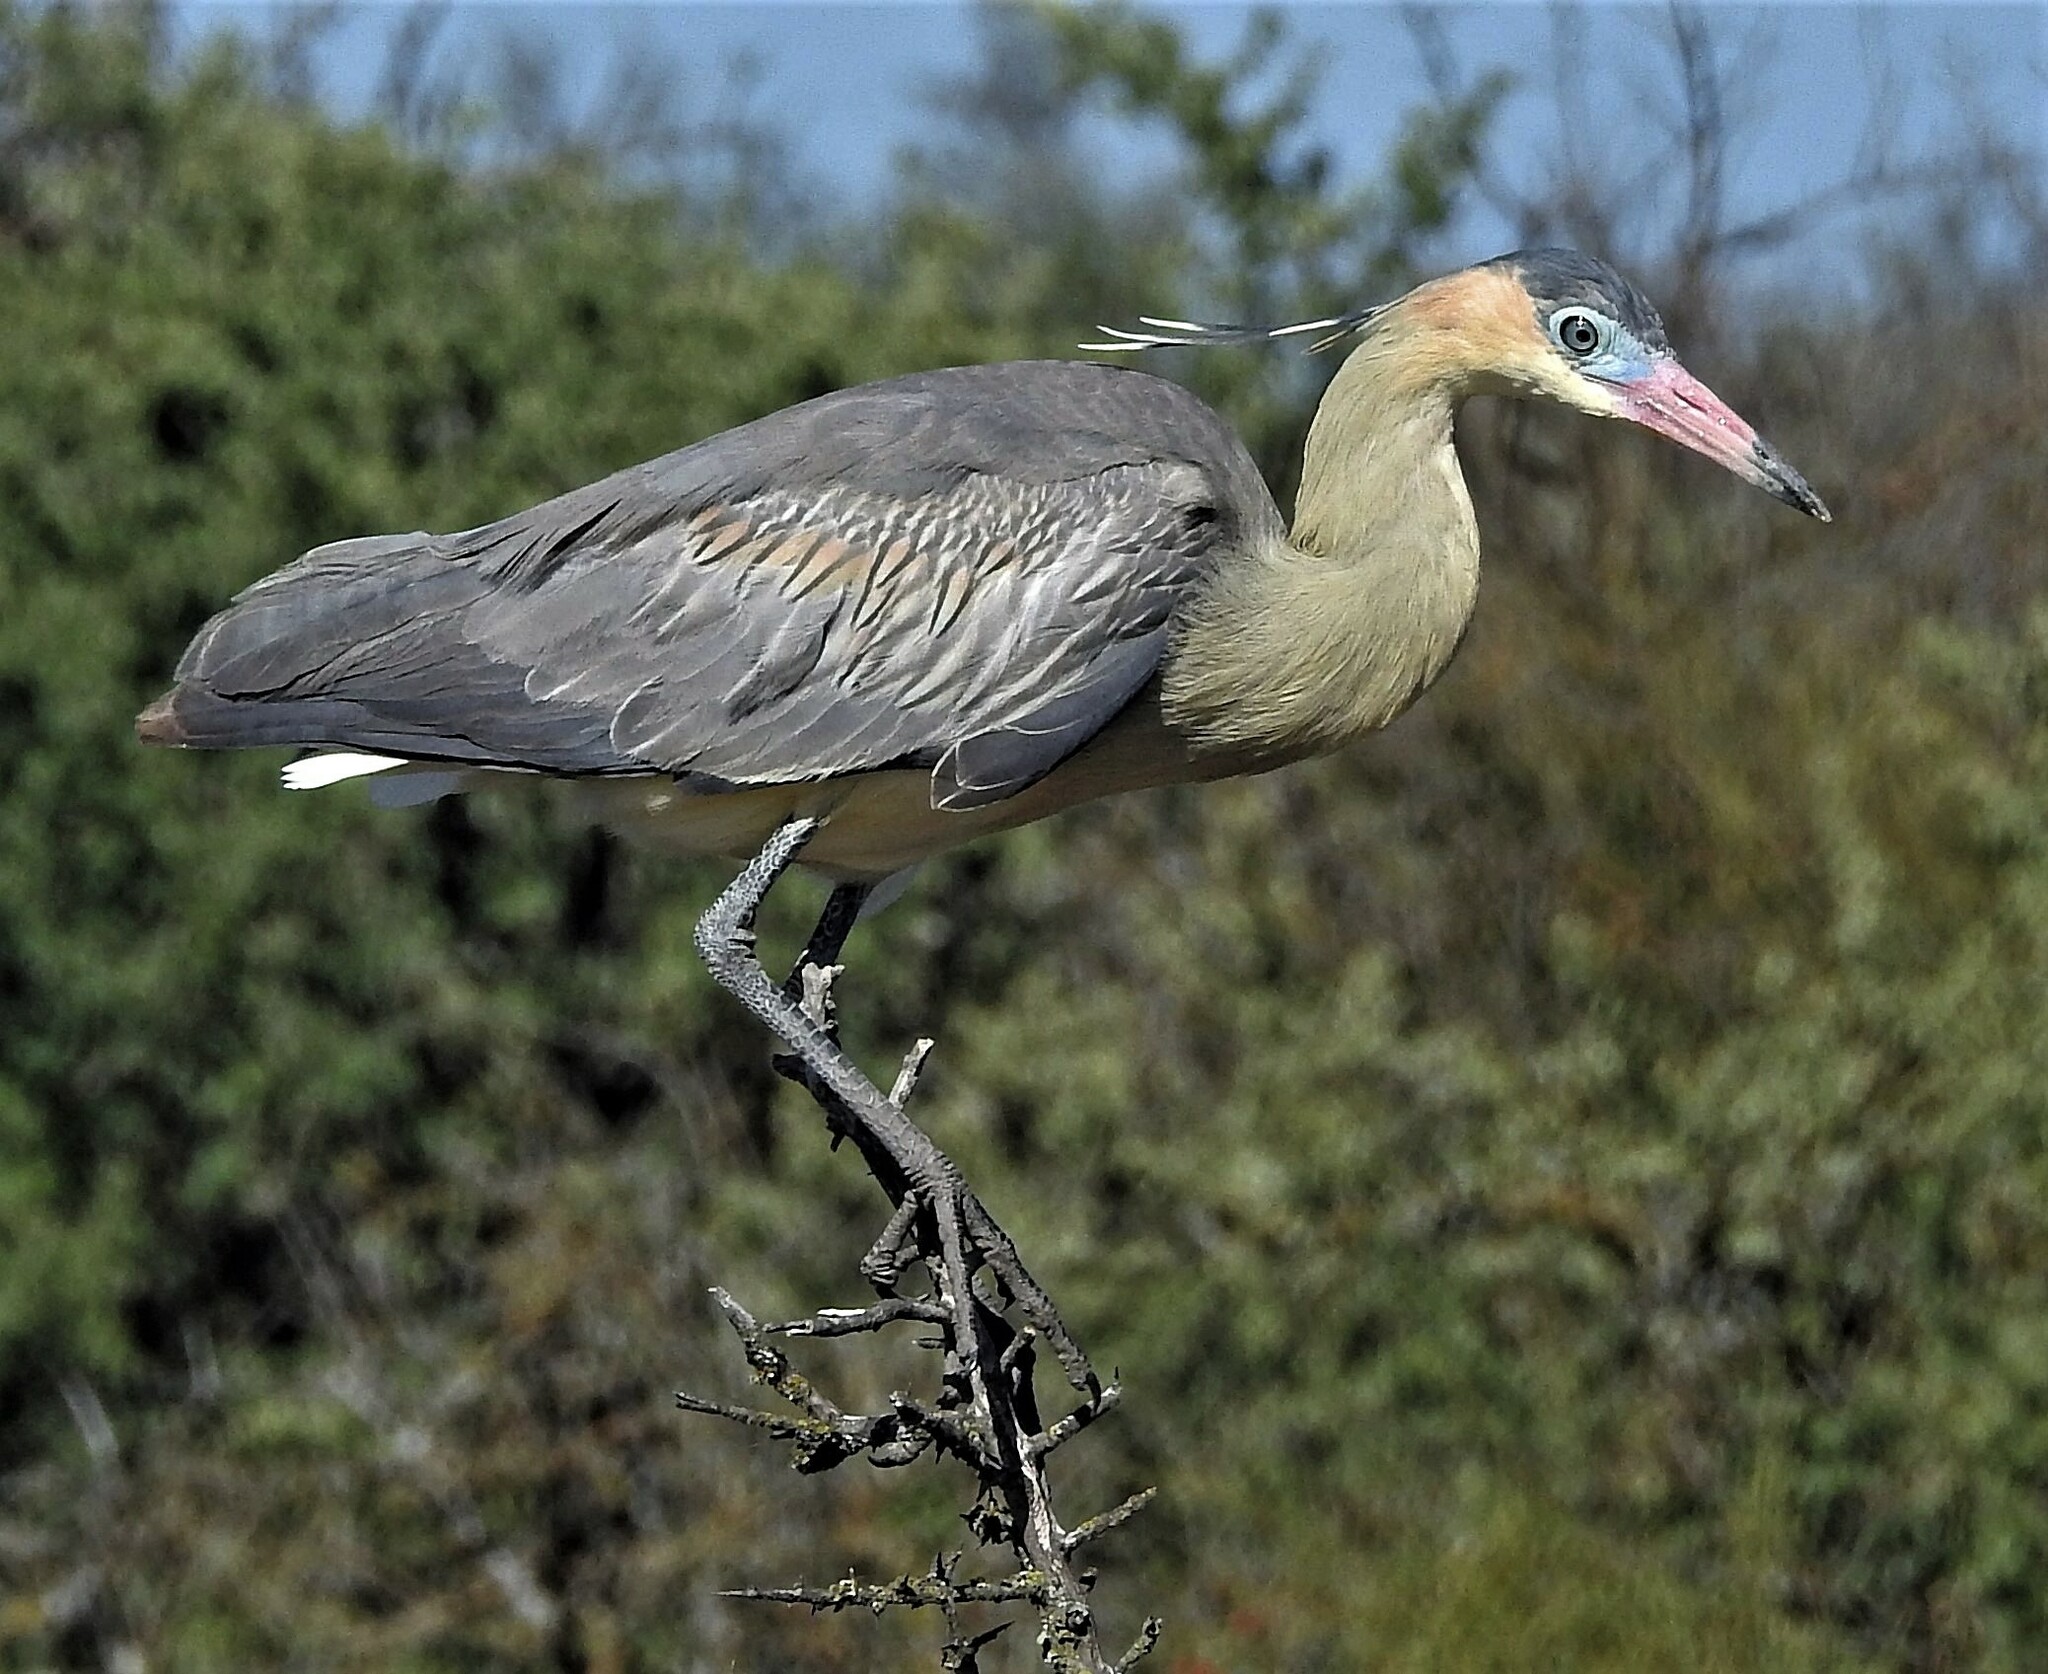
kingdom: Animalia
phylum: Chordata
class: Aves
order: Pelecaniformes
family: Ardeidae
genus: Syrigma
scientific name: Syrigma sibilatrix
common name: Whistling heron
